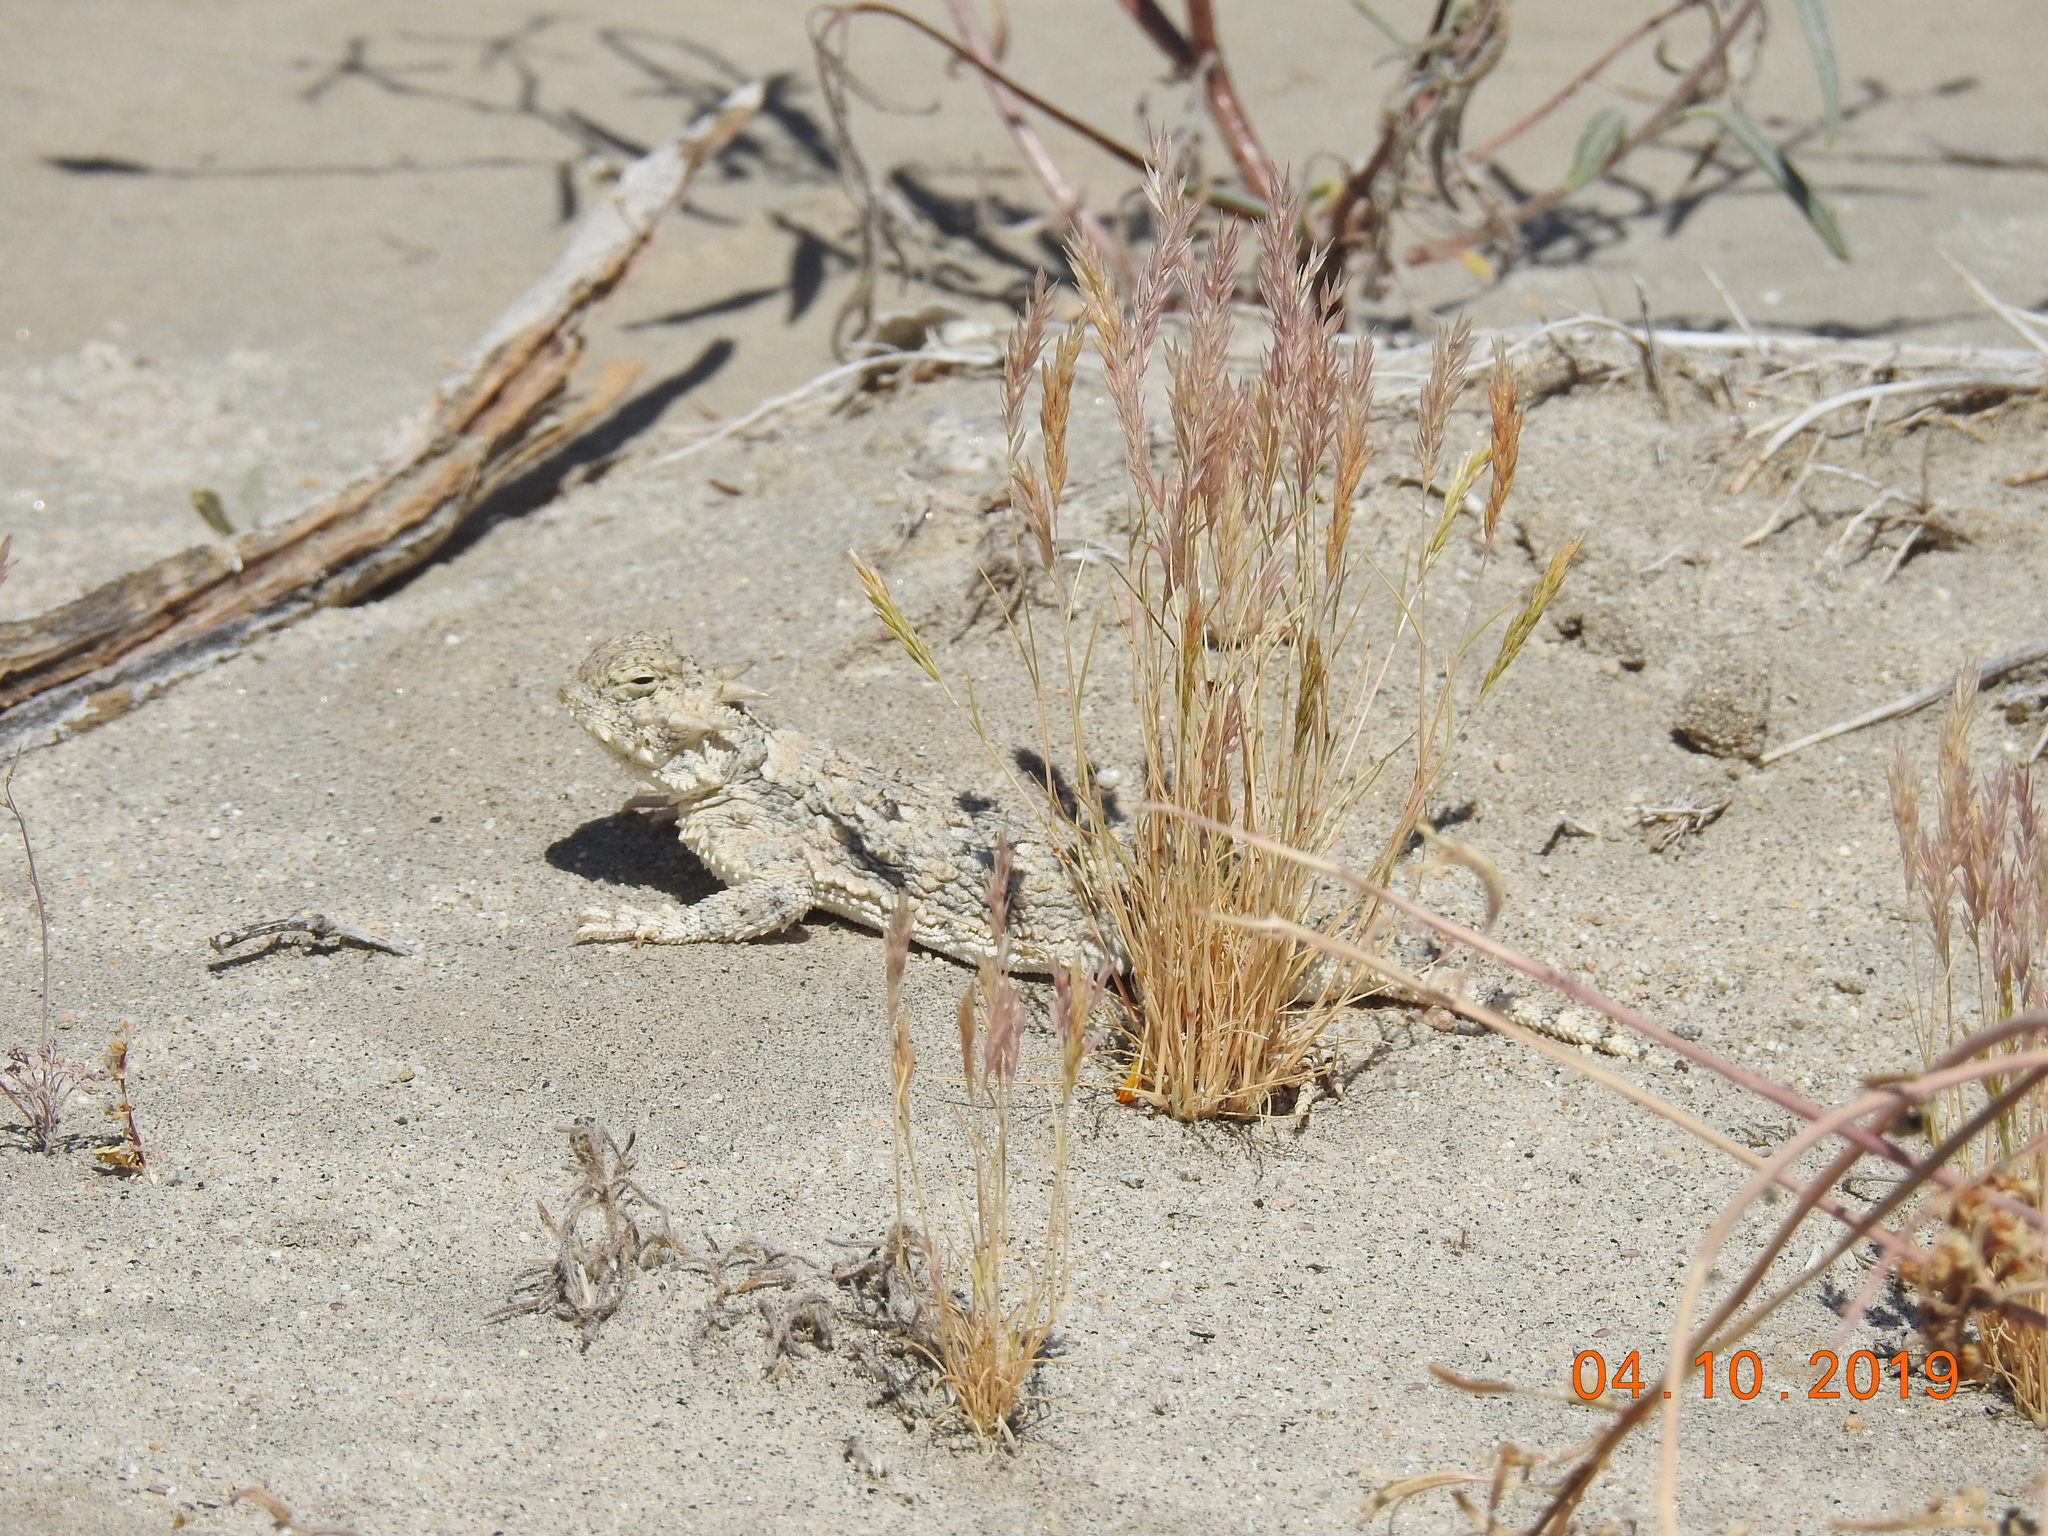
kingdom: Animalia
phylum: Chordata
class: Squamata
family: Phrynosomatidae
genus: Phrynosoma
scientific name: Phrynosoma platyrhinos
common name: Desert horned lizard
